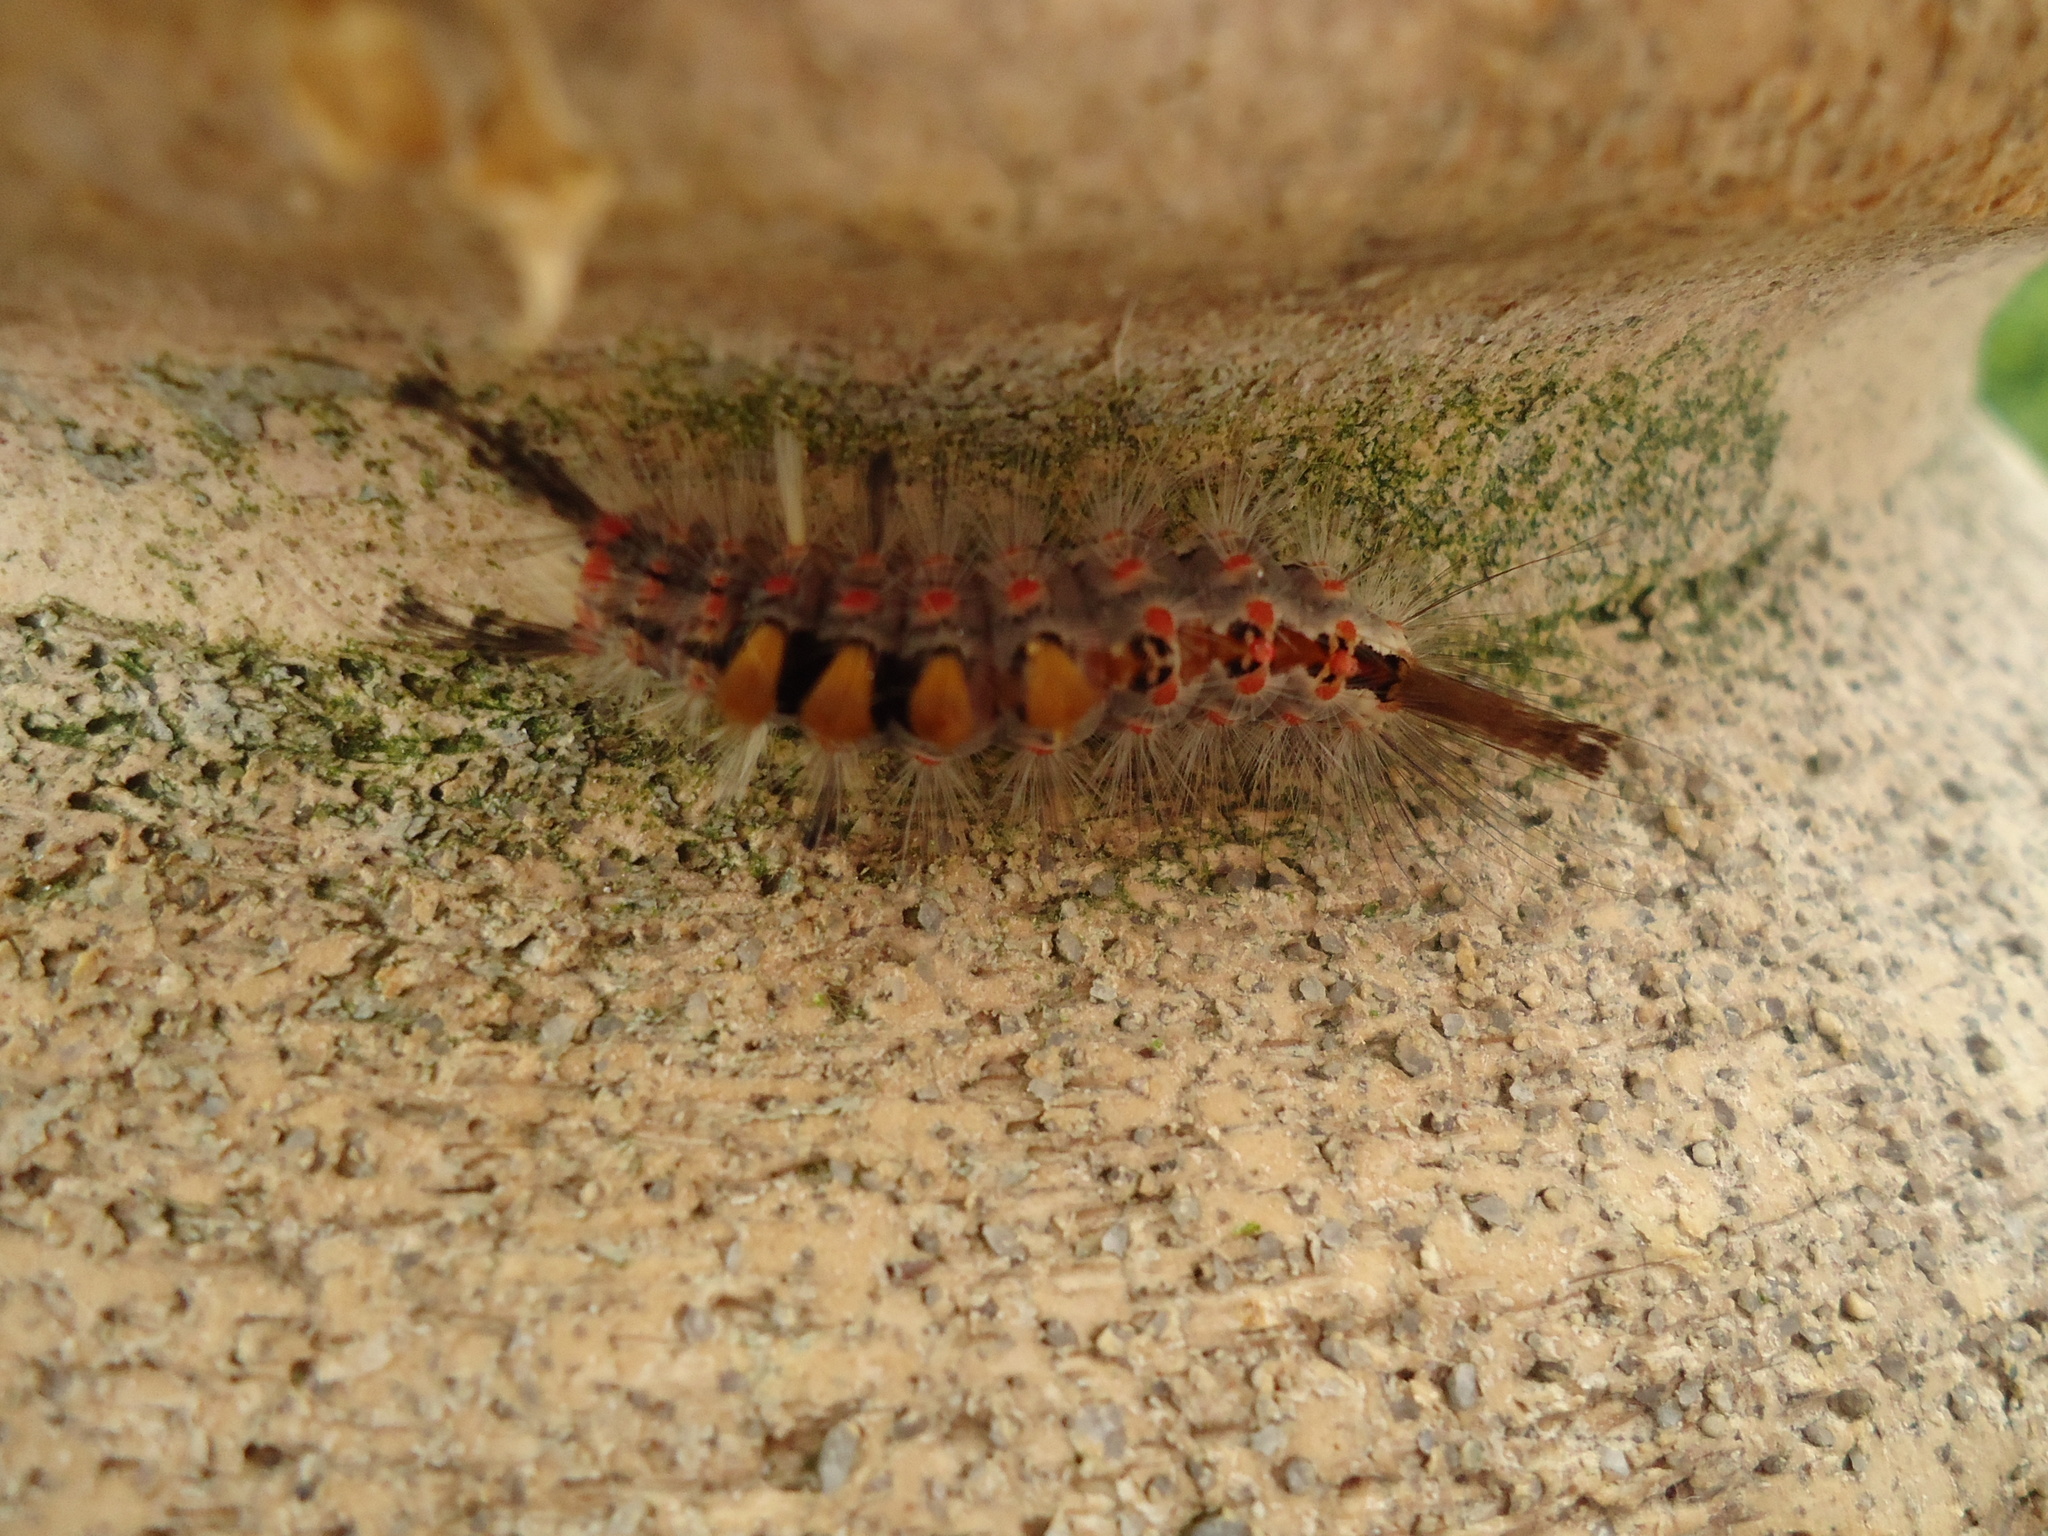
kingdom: Animalia
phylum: Arthropoda
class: Insecta
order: Lepidoptera
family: Erebidae
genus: Orgyia
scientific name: Orgyia antiqua
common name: Vapourer
